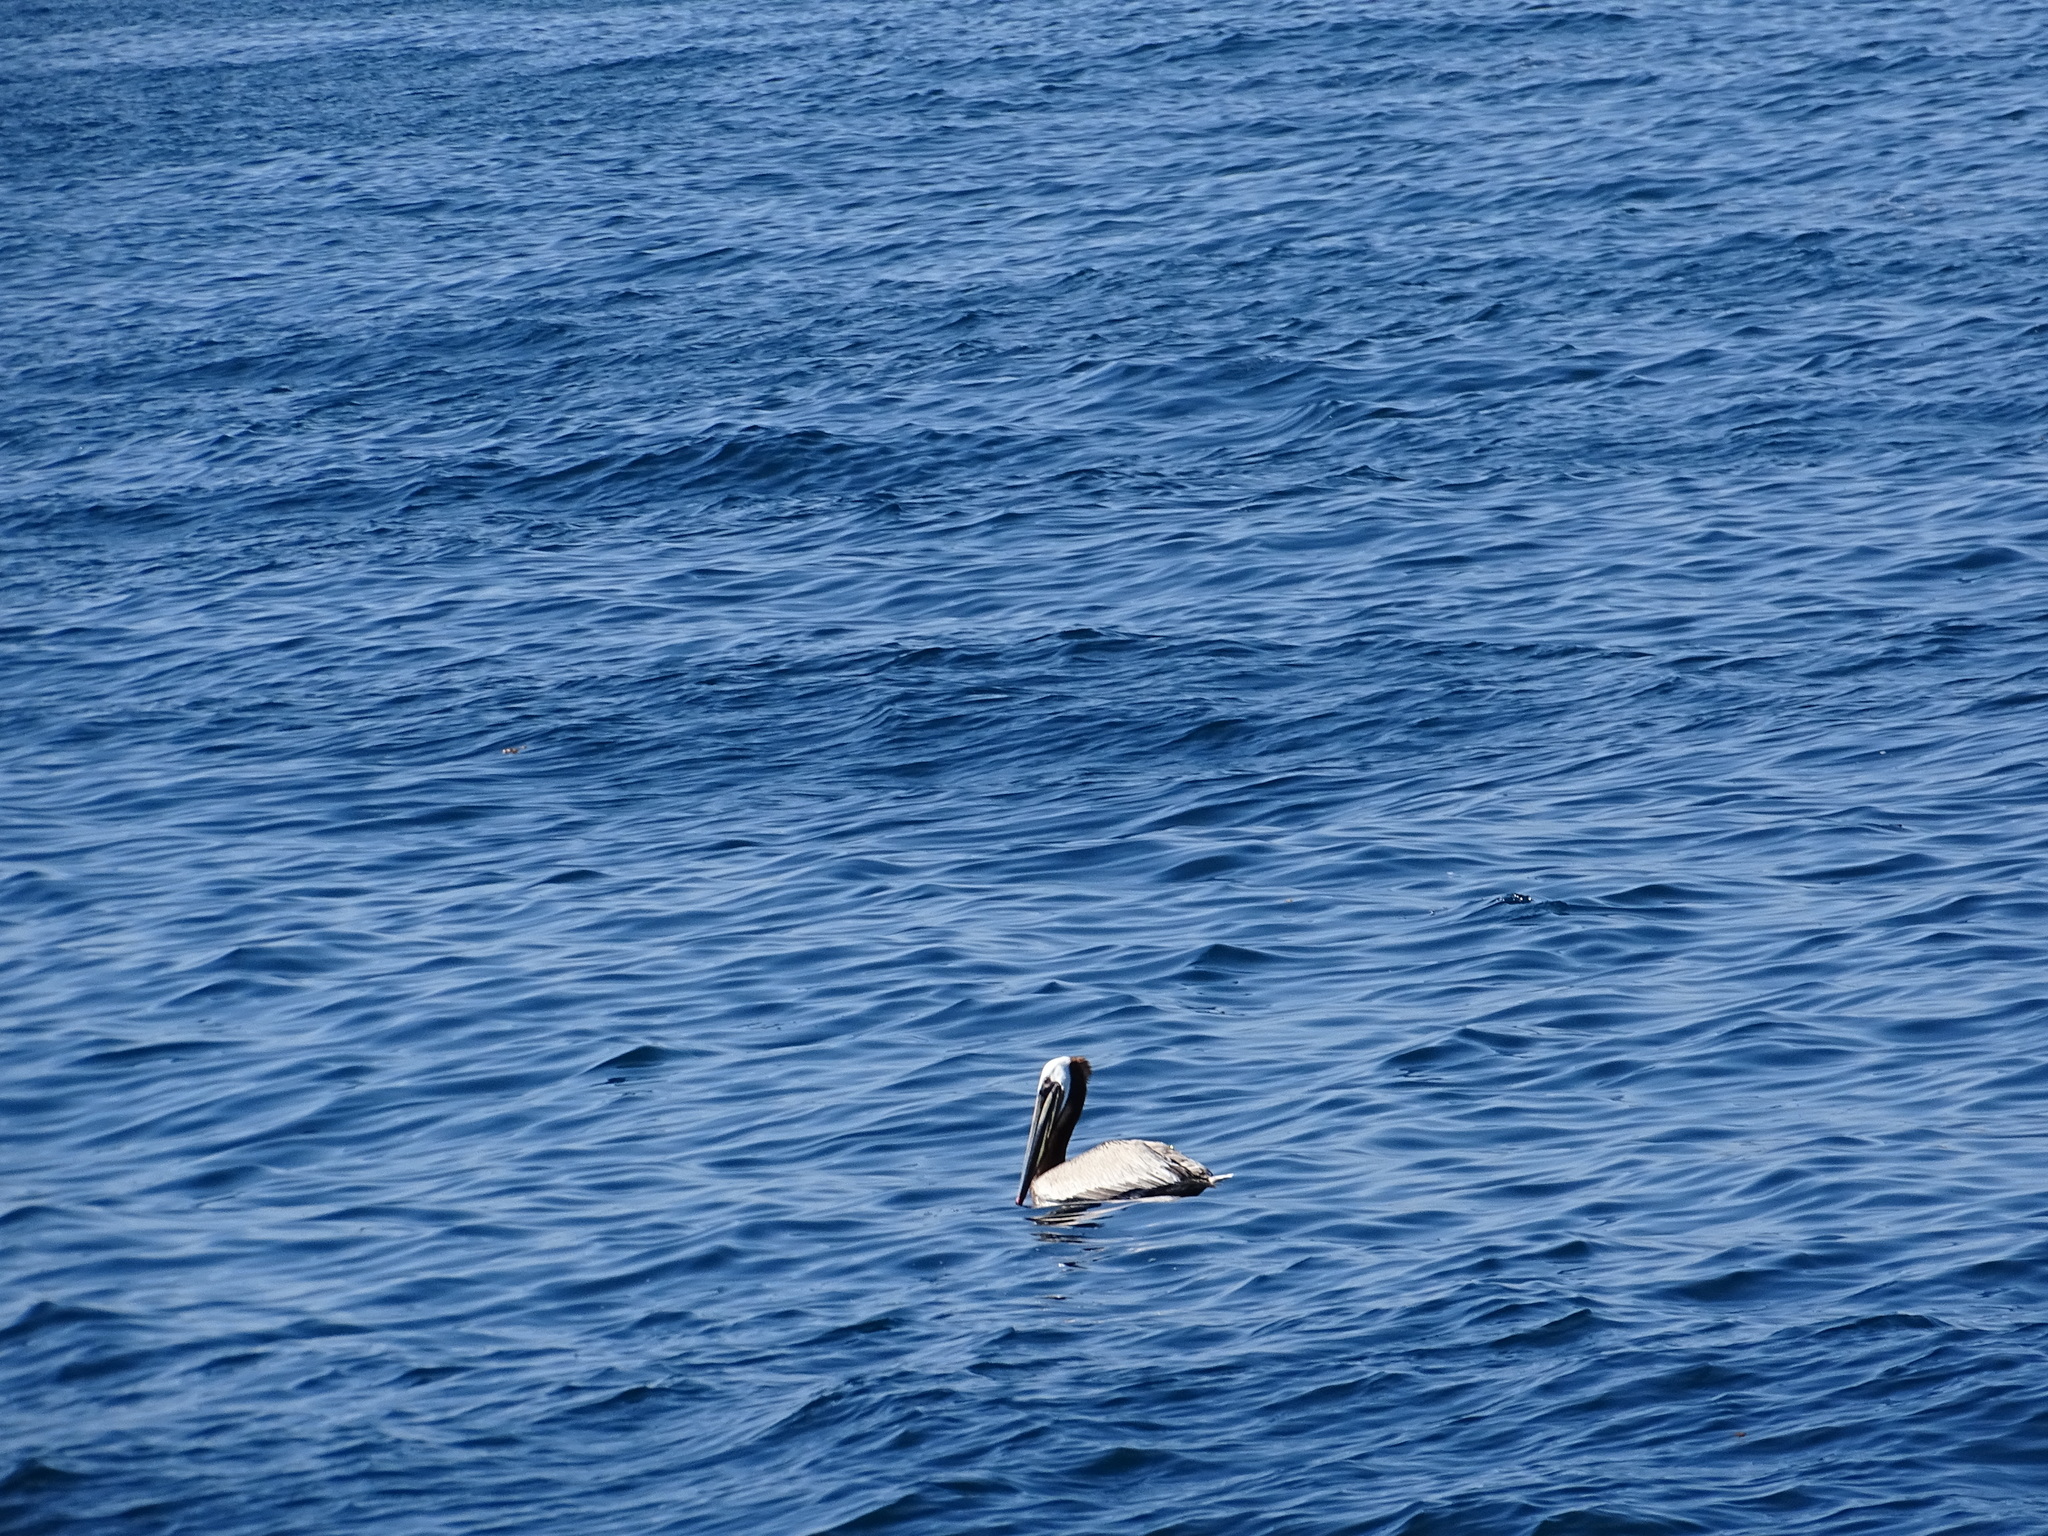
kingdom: Animalia
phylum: Chordata
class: Aves
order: Pelecaniformes
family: Pelecanidae
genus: Pelecanus
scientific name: Pelecanus occidentalis
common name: Brown pelican
